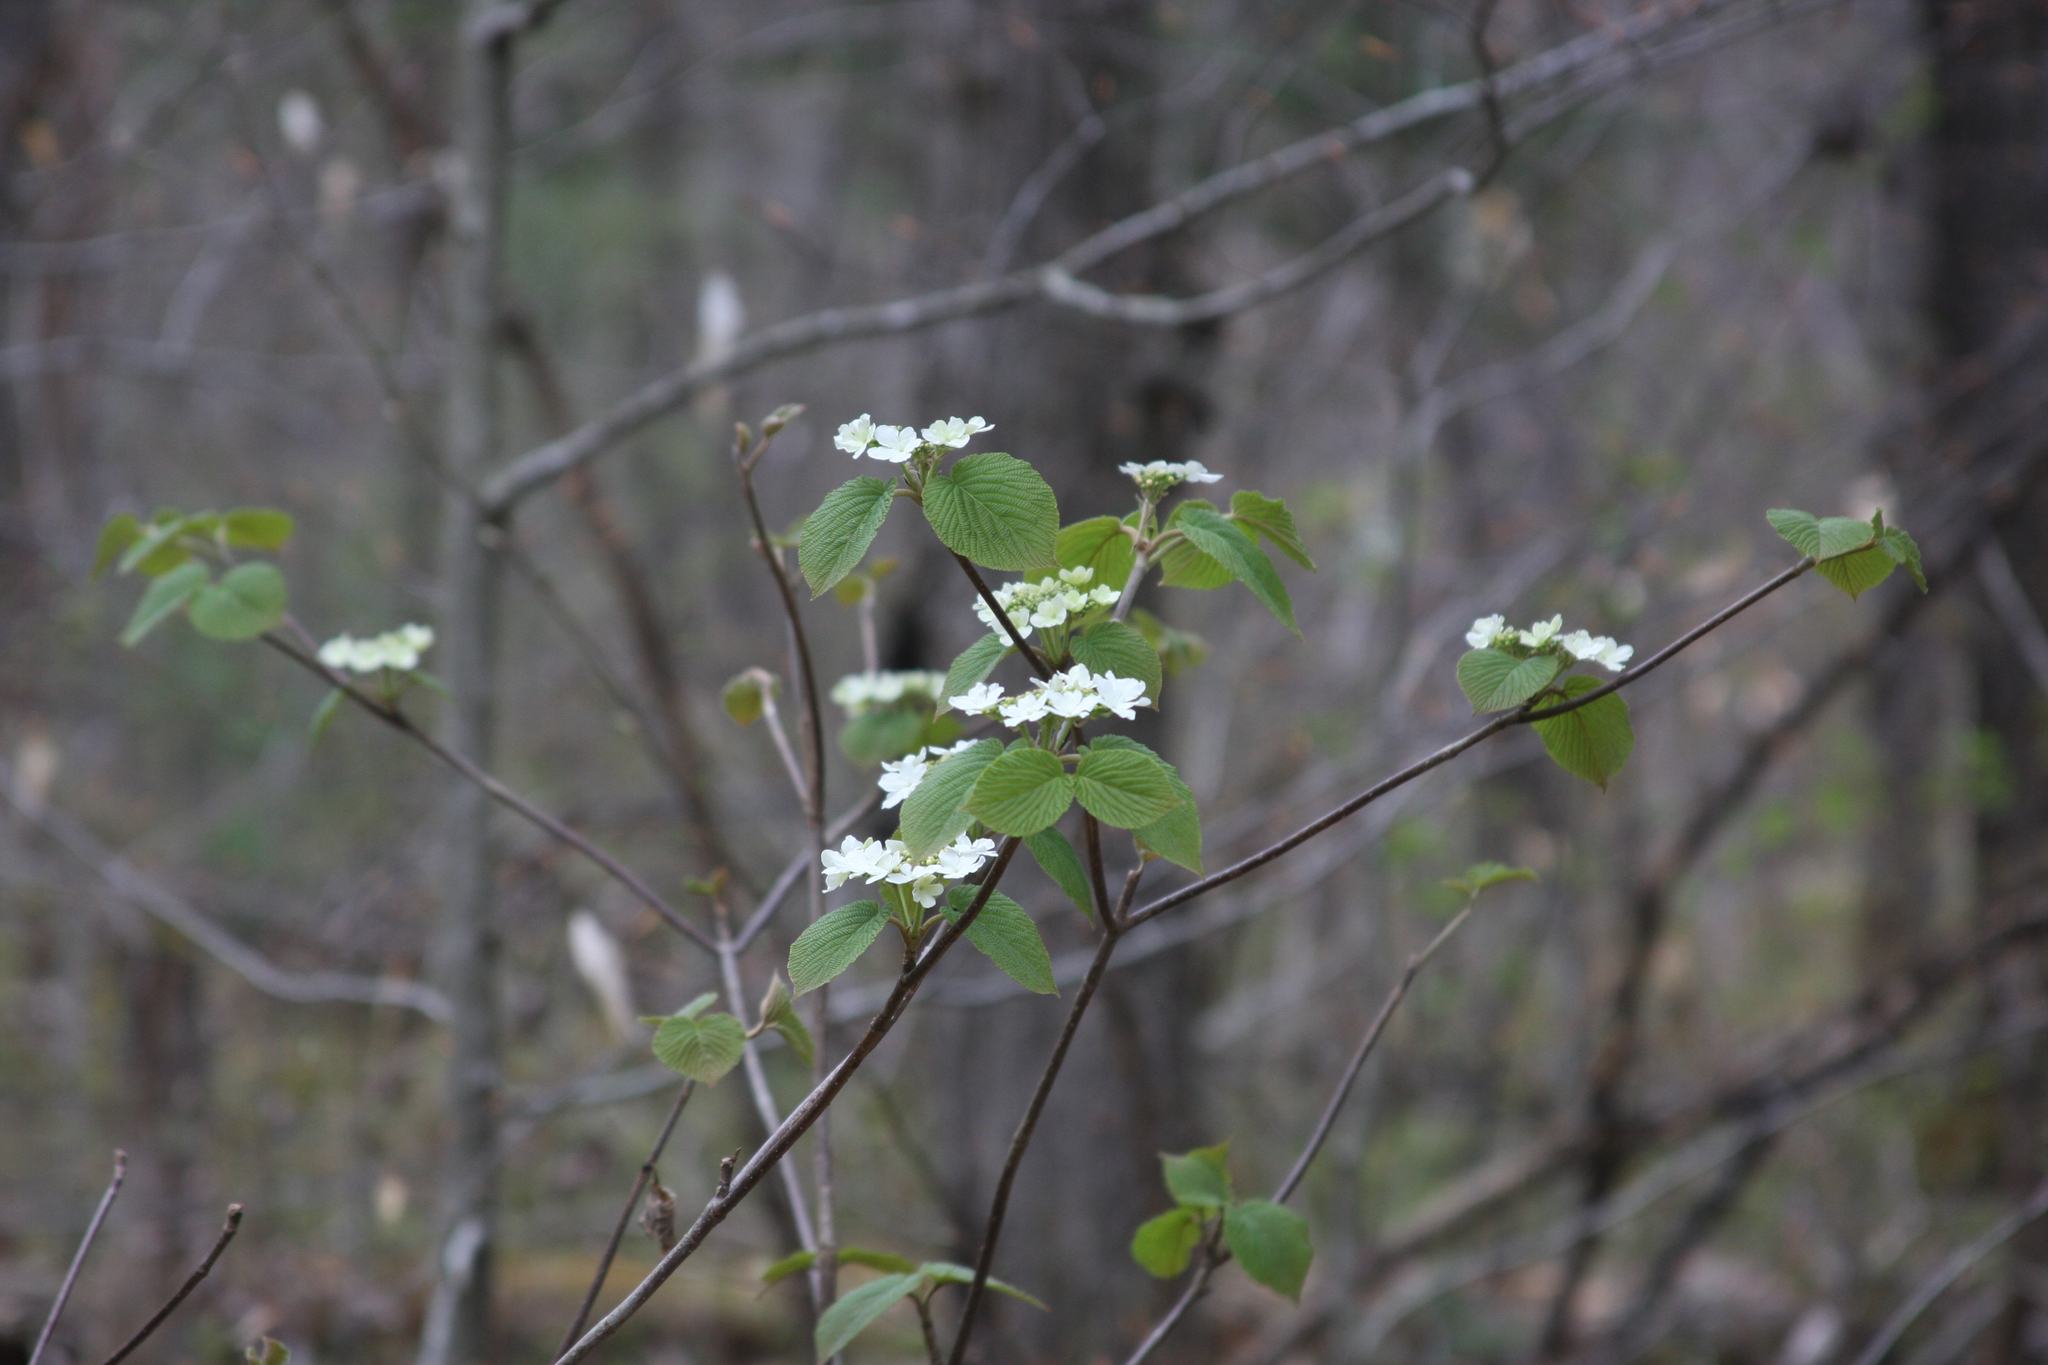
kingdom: Plantae
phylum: Tracheophyta
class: Magnoliopsida
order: Dipsacales
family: Viburnaceae
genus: Viburnum
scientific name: Viburnum lantanoides
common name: Hobblebush
